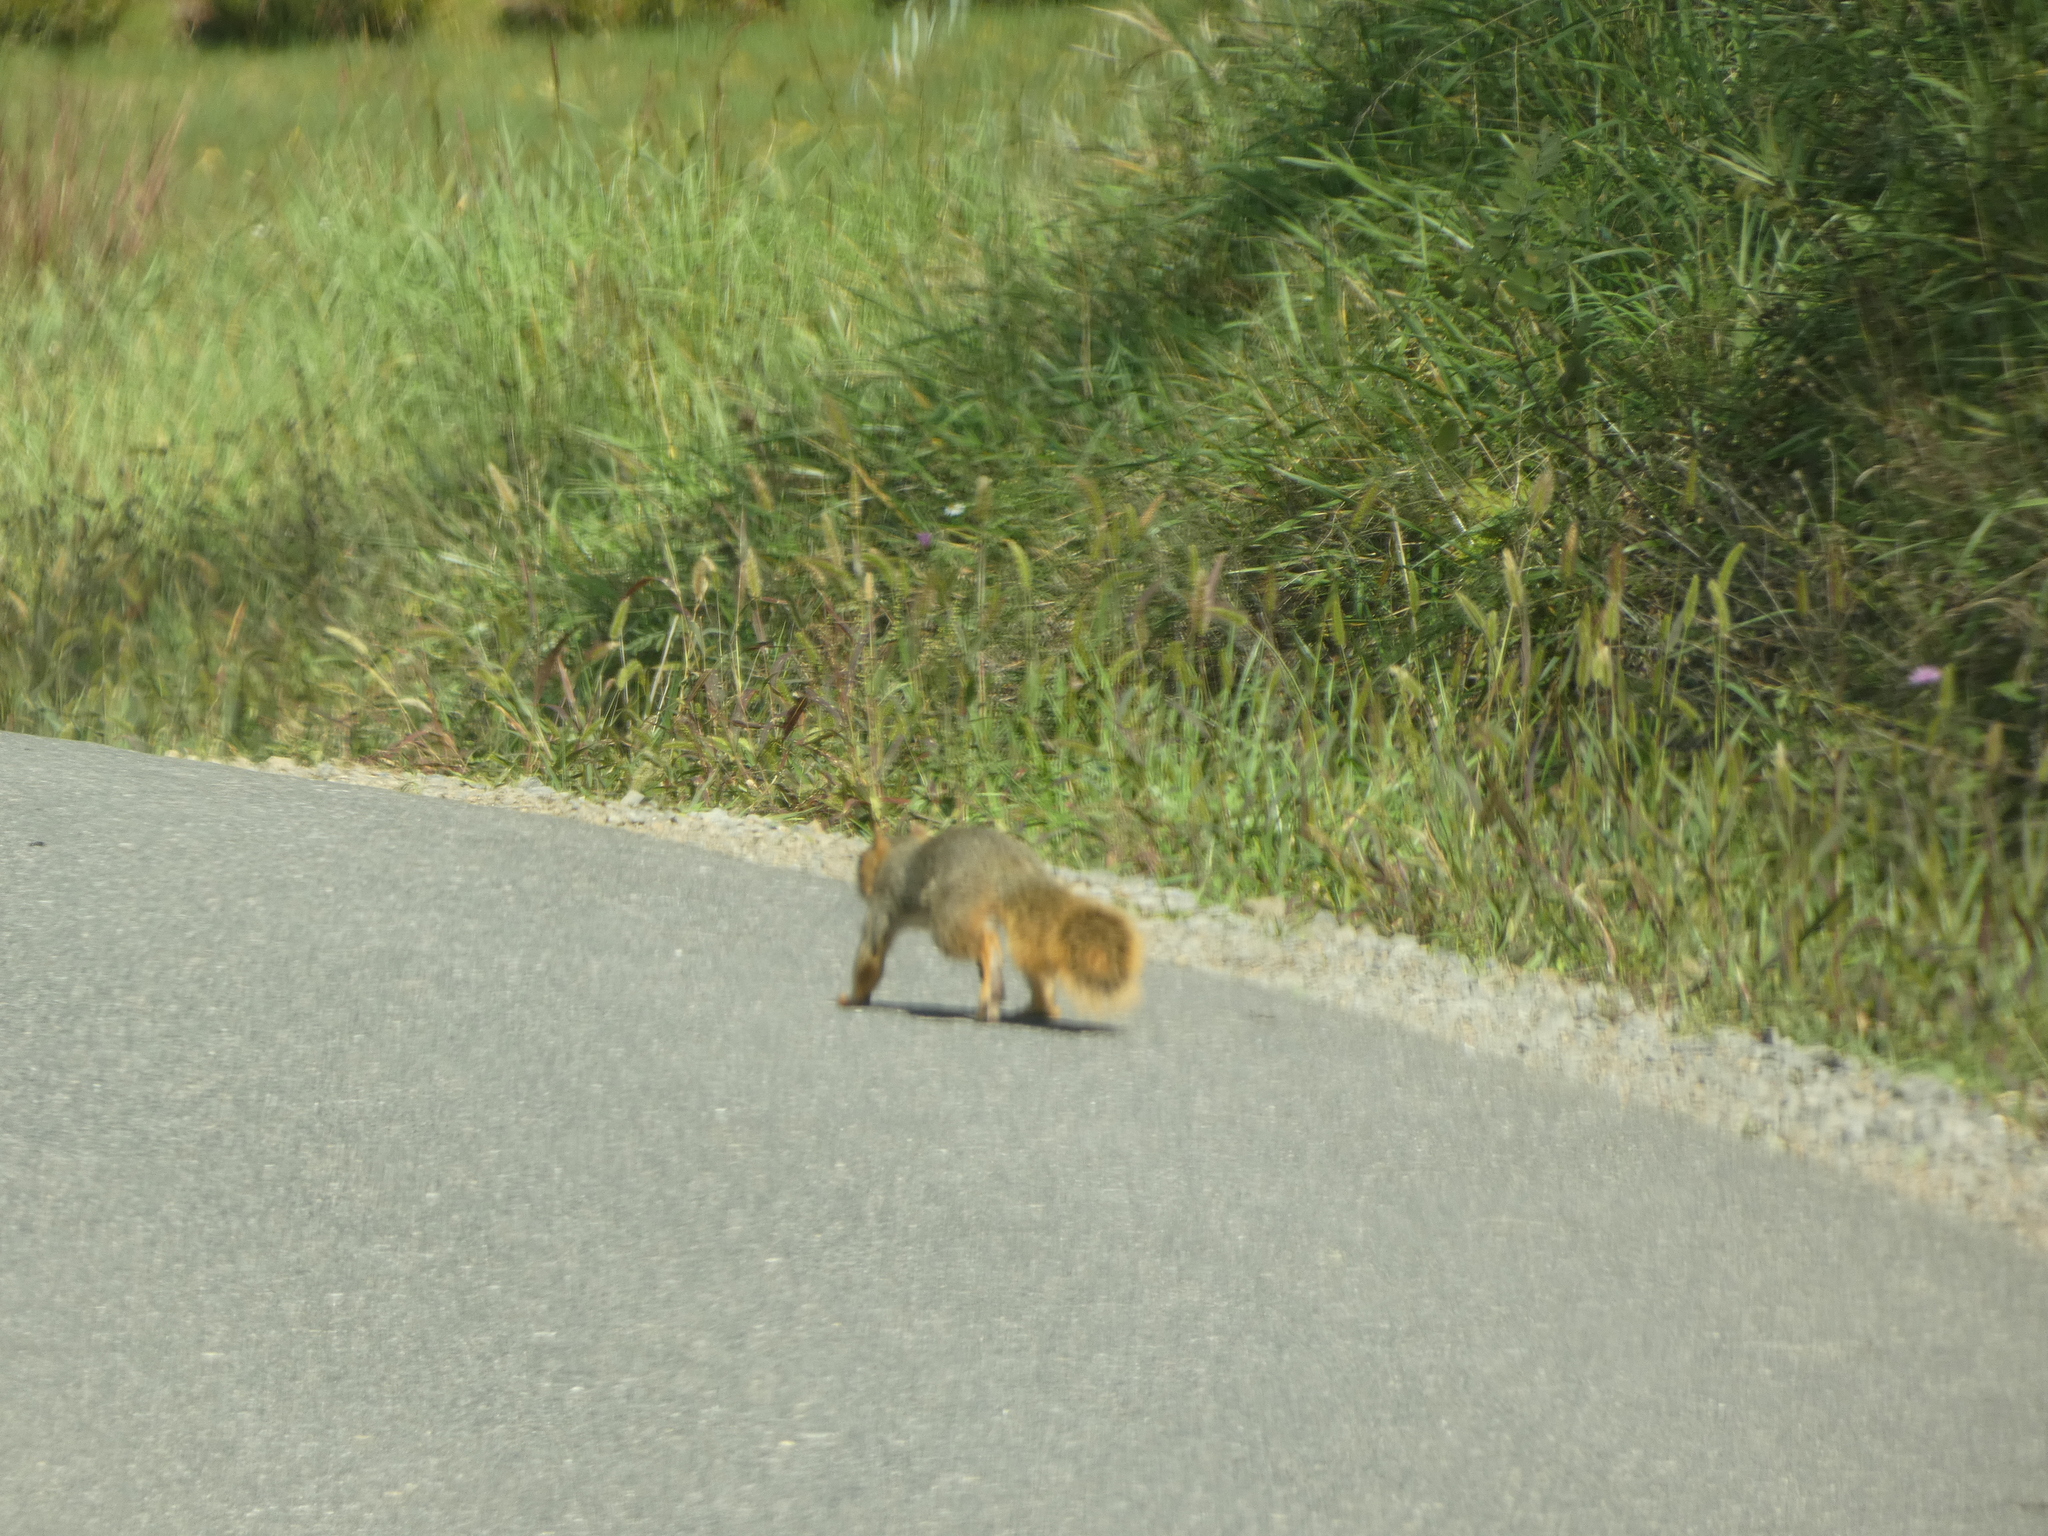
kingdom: Animalia
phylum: Chordata
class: Mammalia
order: Rodentia
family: Sciuridae
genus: Sciurus
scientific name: Sciurus niger
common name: Fox squirrel
